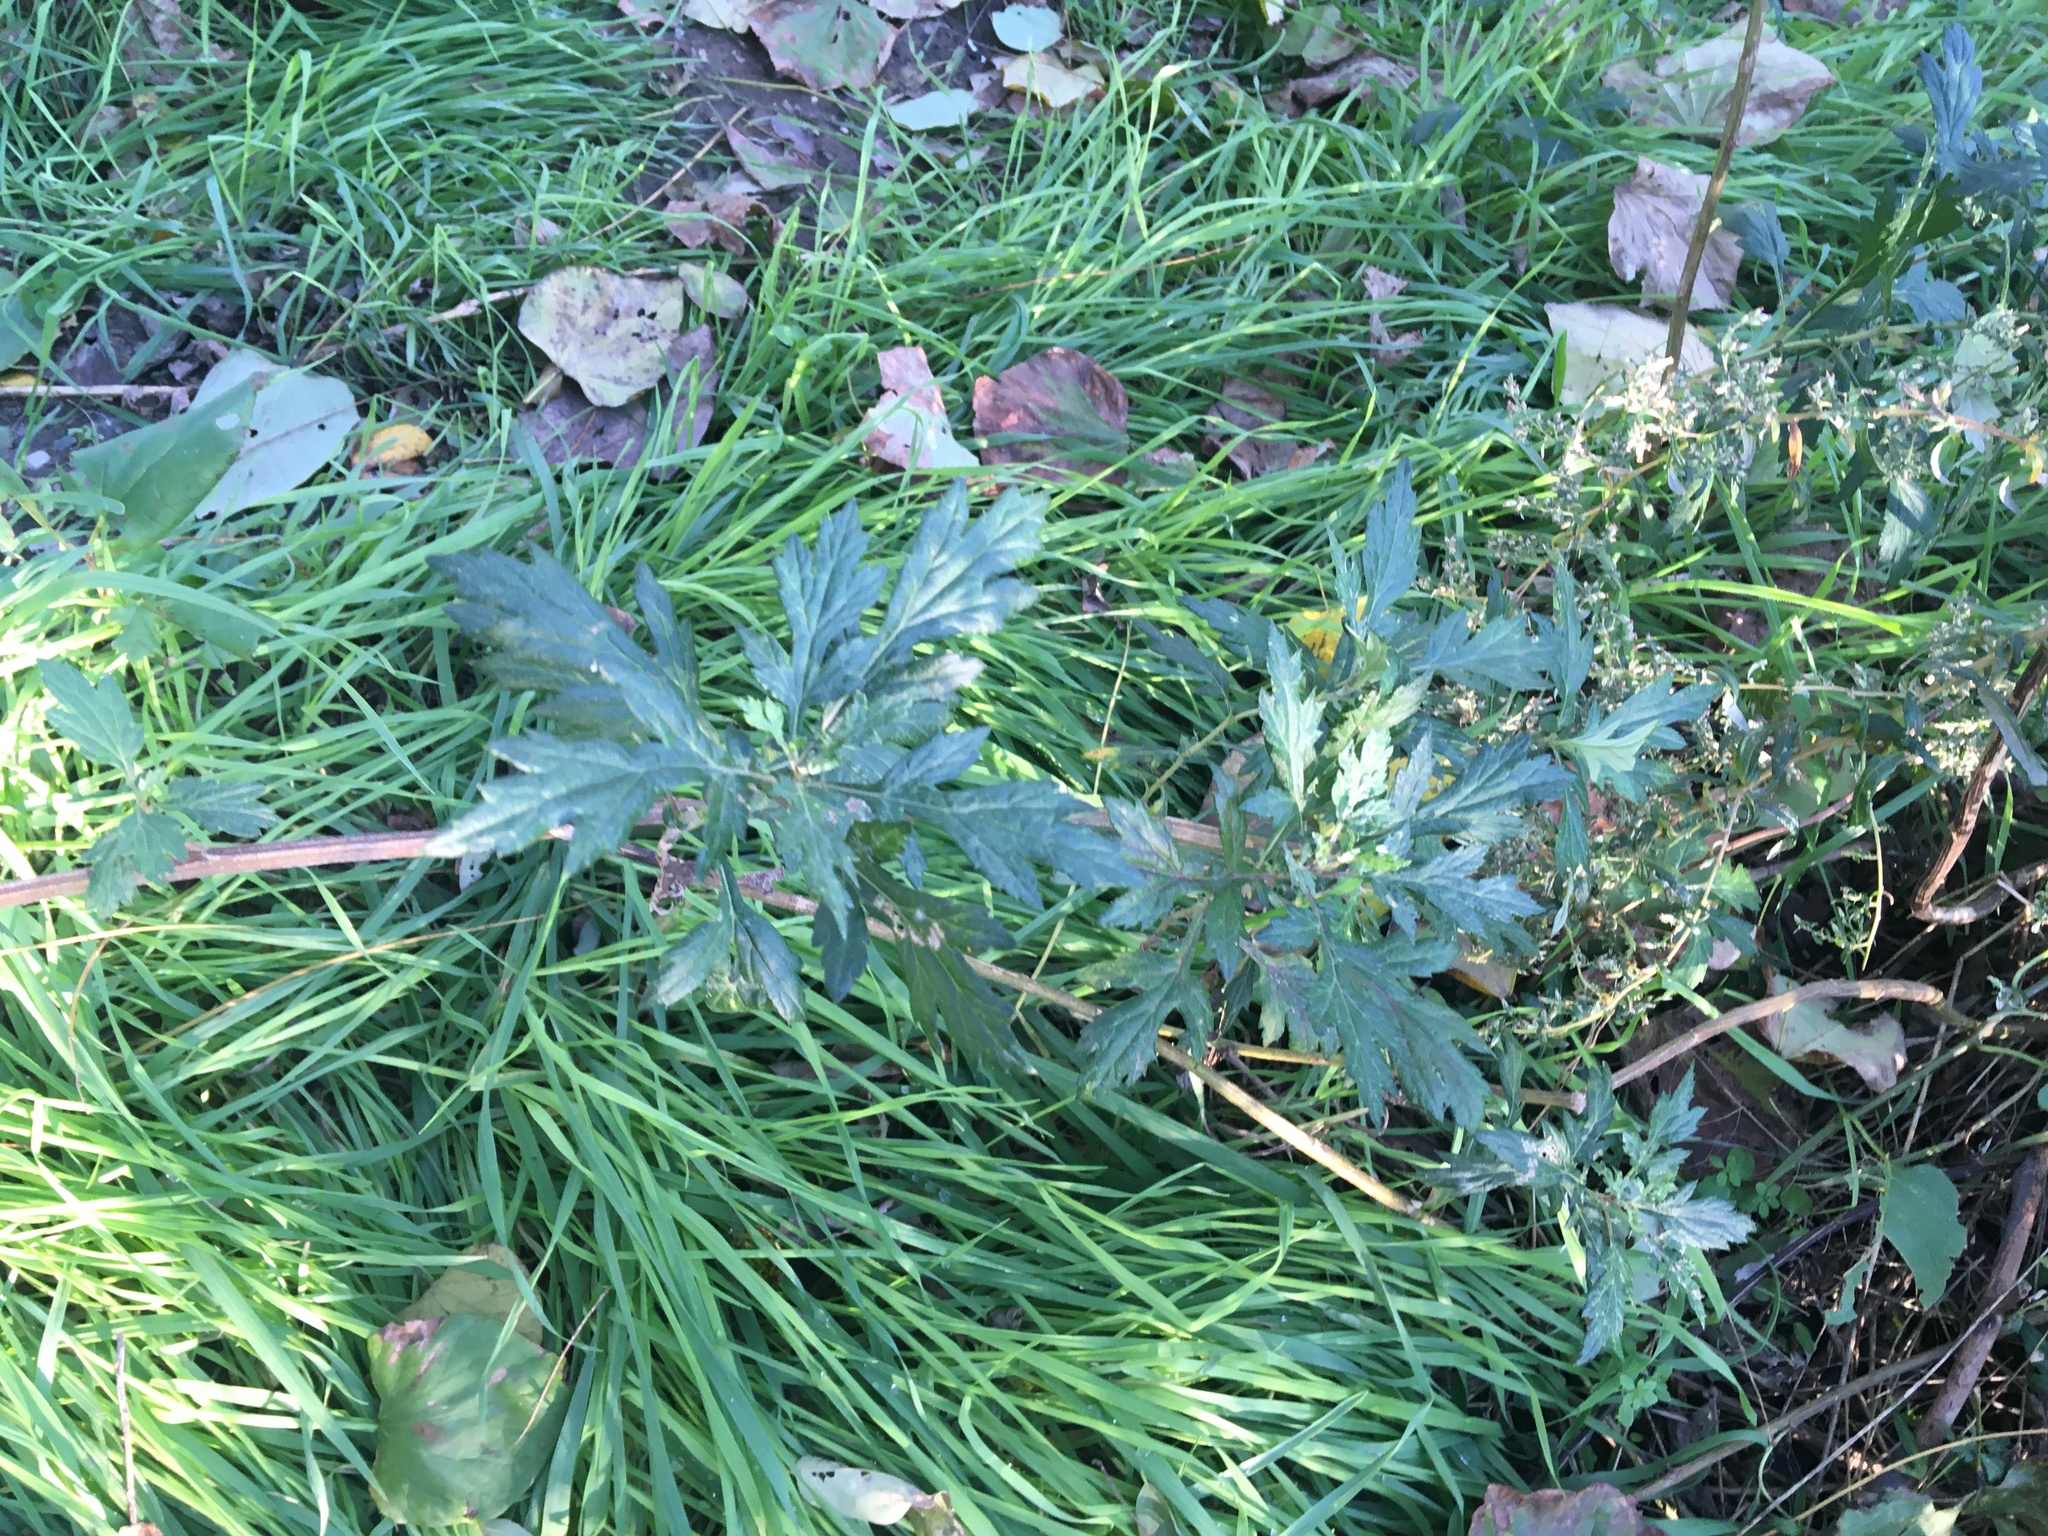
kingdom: Plantae
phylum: Tracheophyta
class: Magnoliopsida
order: Asterales
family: Asteraceae
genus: Artemisia
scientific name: Artemisia vulgaris
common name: Mugwort
